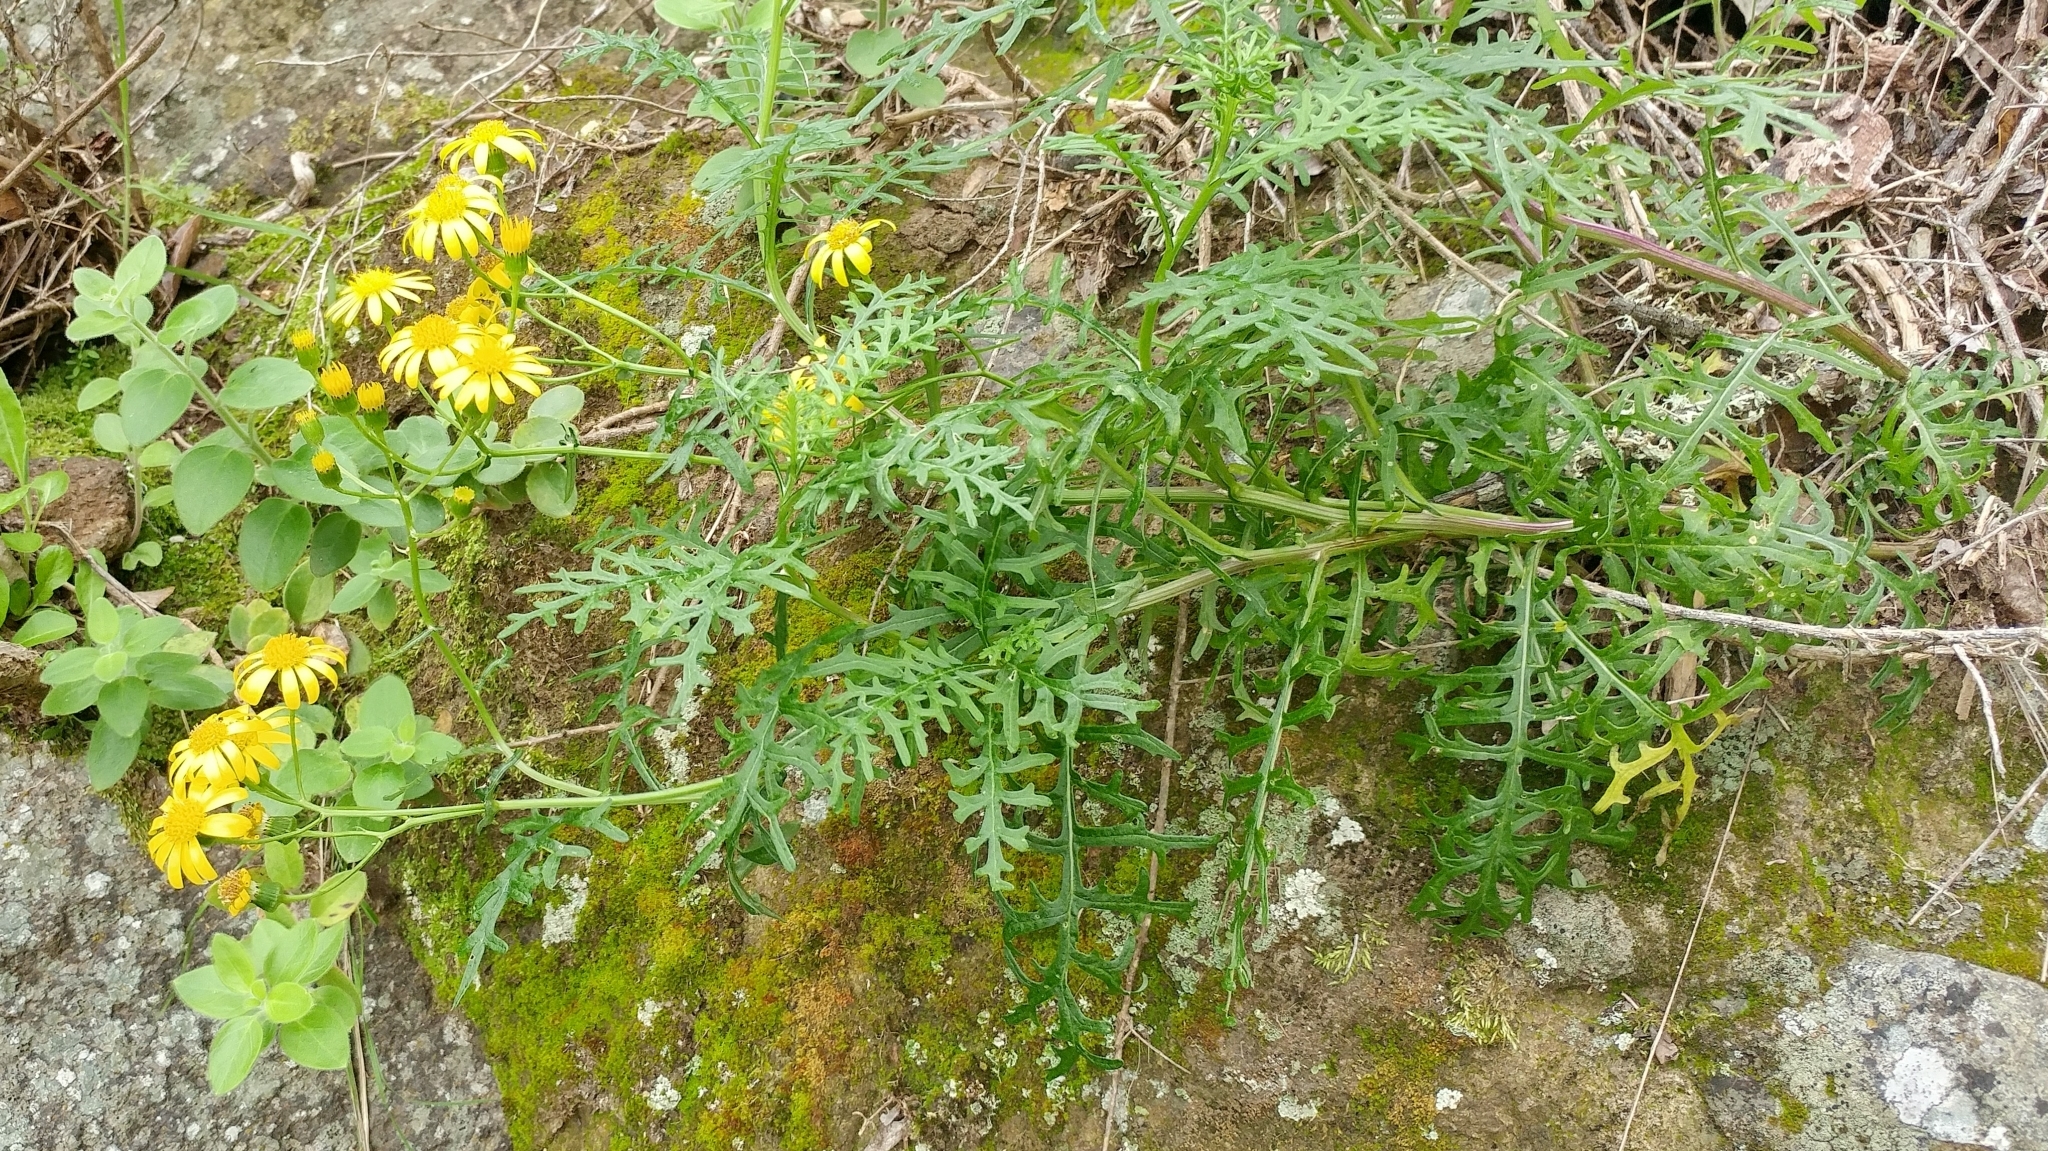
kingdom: Plantae
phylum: Tracheophyta
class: Magnoliopsida
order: Asterales
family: Asteraceae
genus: Senecio
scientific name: Senecio lyonii
